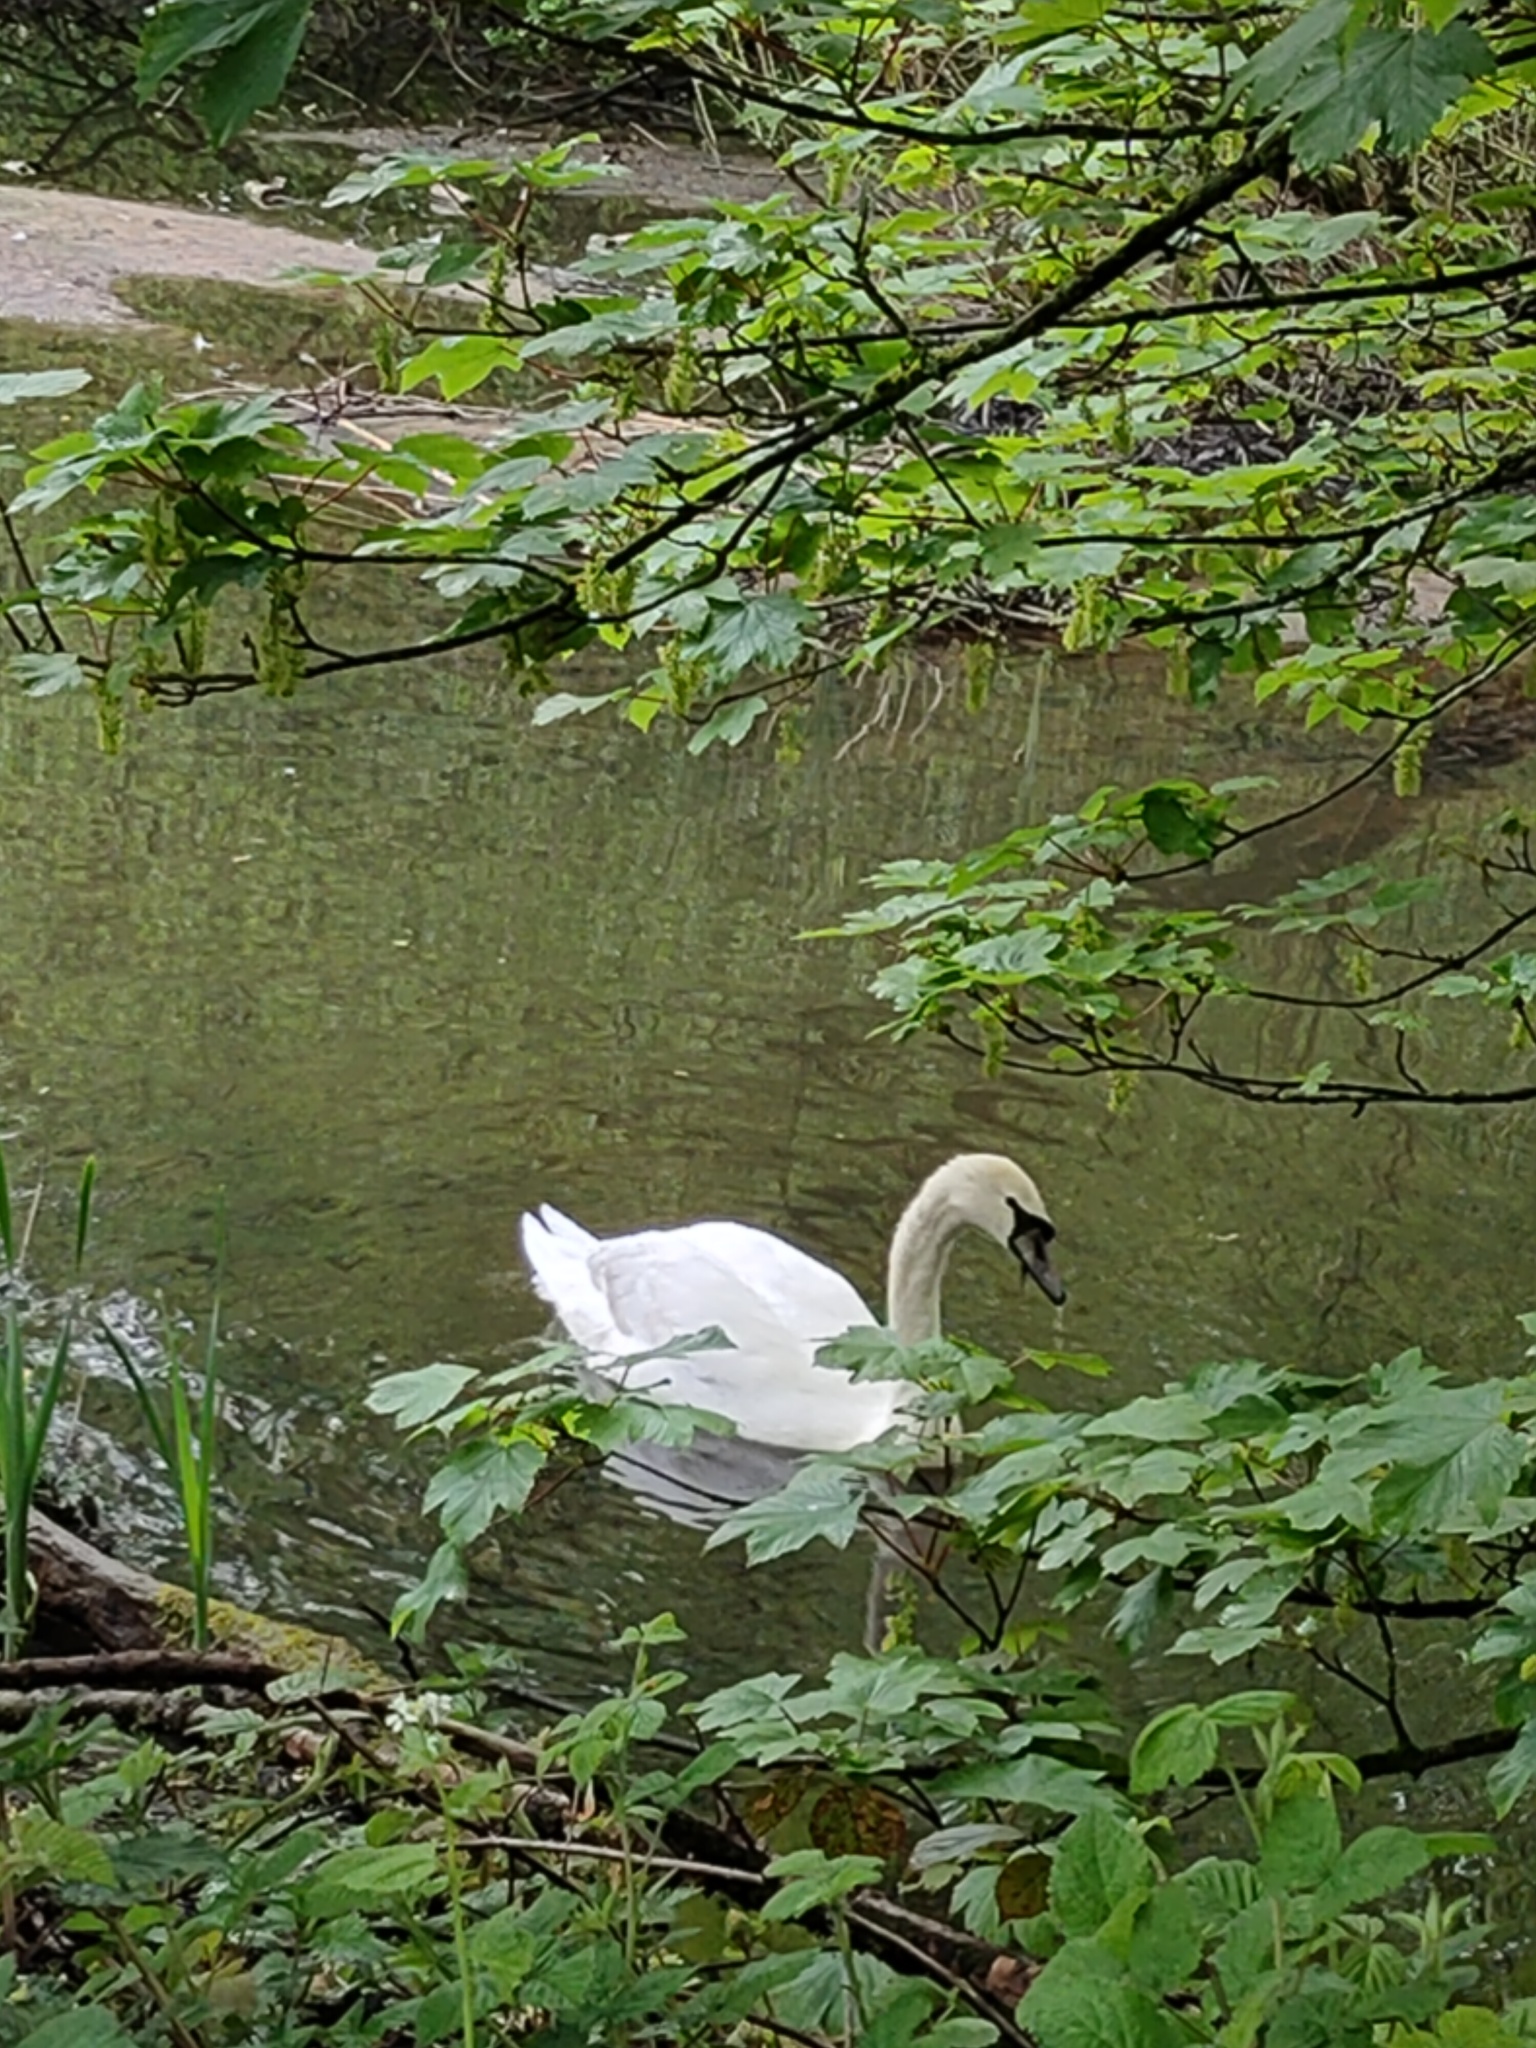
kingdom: Animalia
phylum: Chordata
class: Aves
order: Anseriformes
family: Anatidae
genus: Cygnus
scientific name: Cygnus olor
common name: Mute swan
